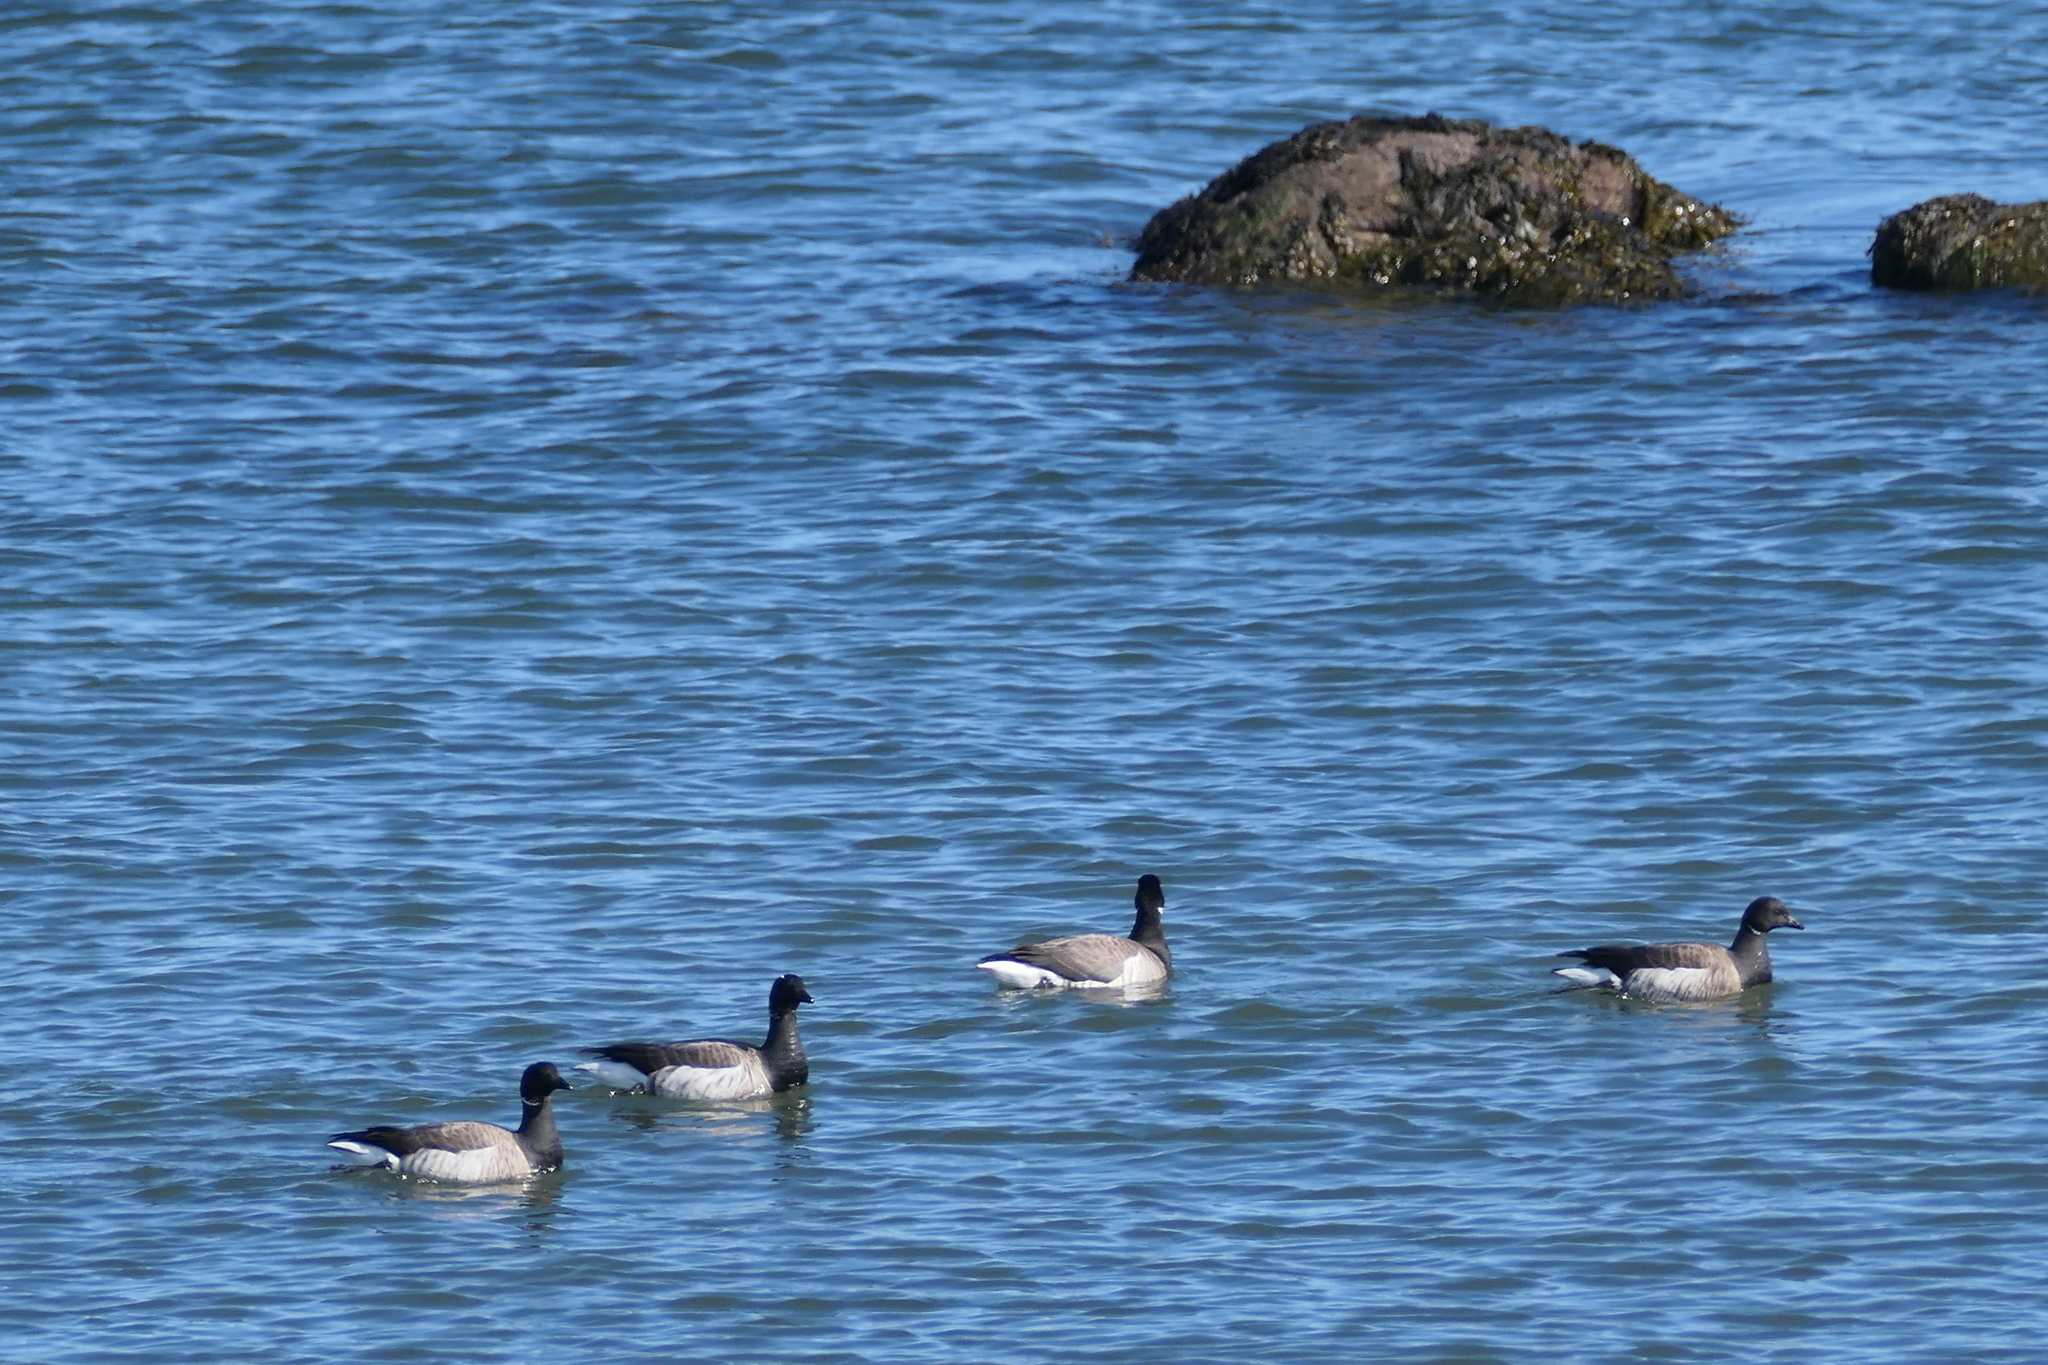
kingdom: Animalia
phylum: Chordata
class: Aves
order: Anseriformes
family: Anatidae
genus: Branta
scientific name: Branta bernicla
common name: Brant goose
